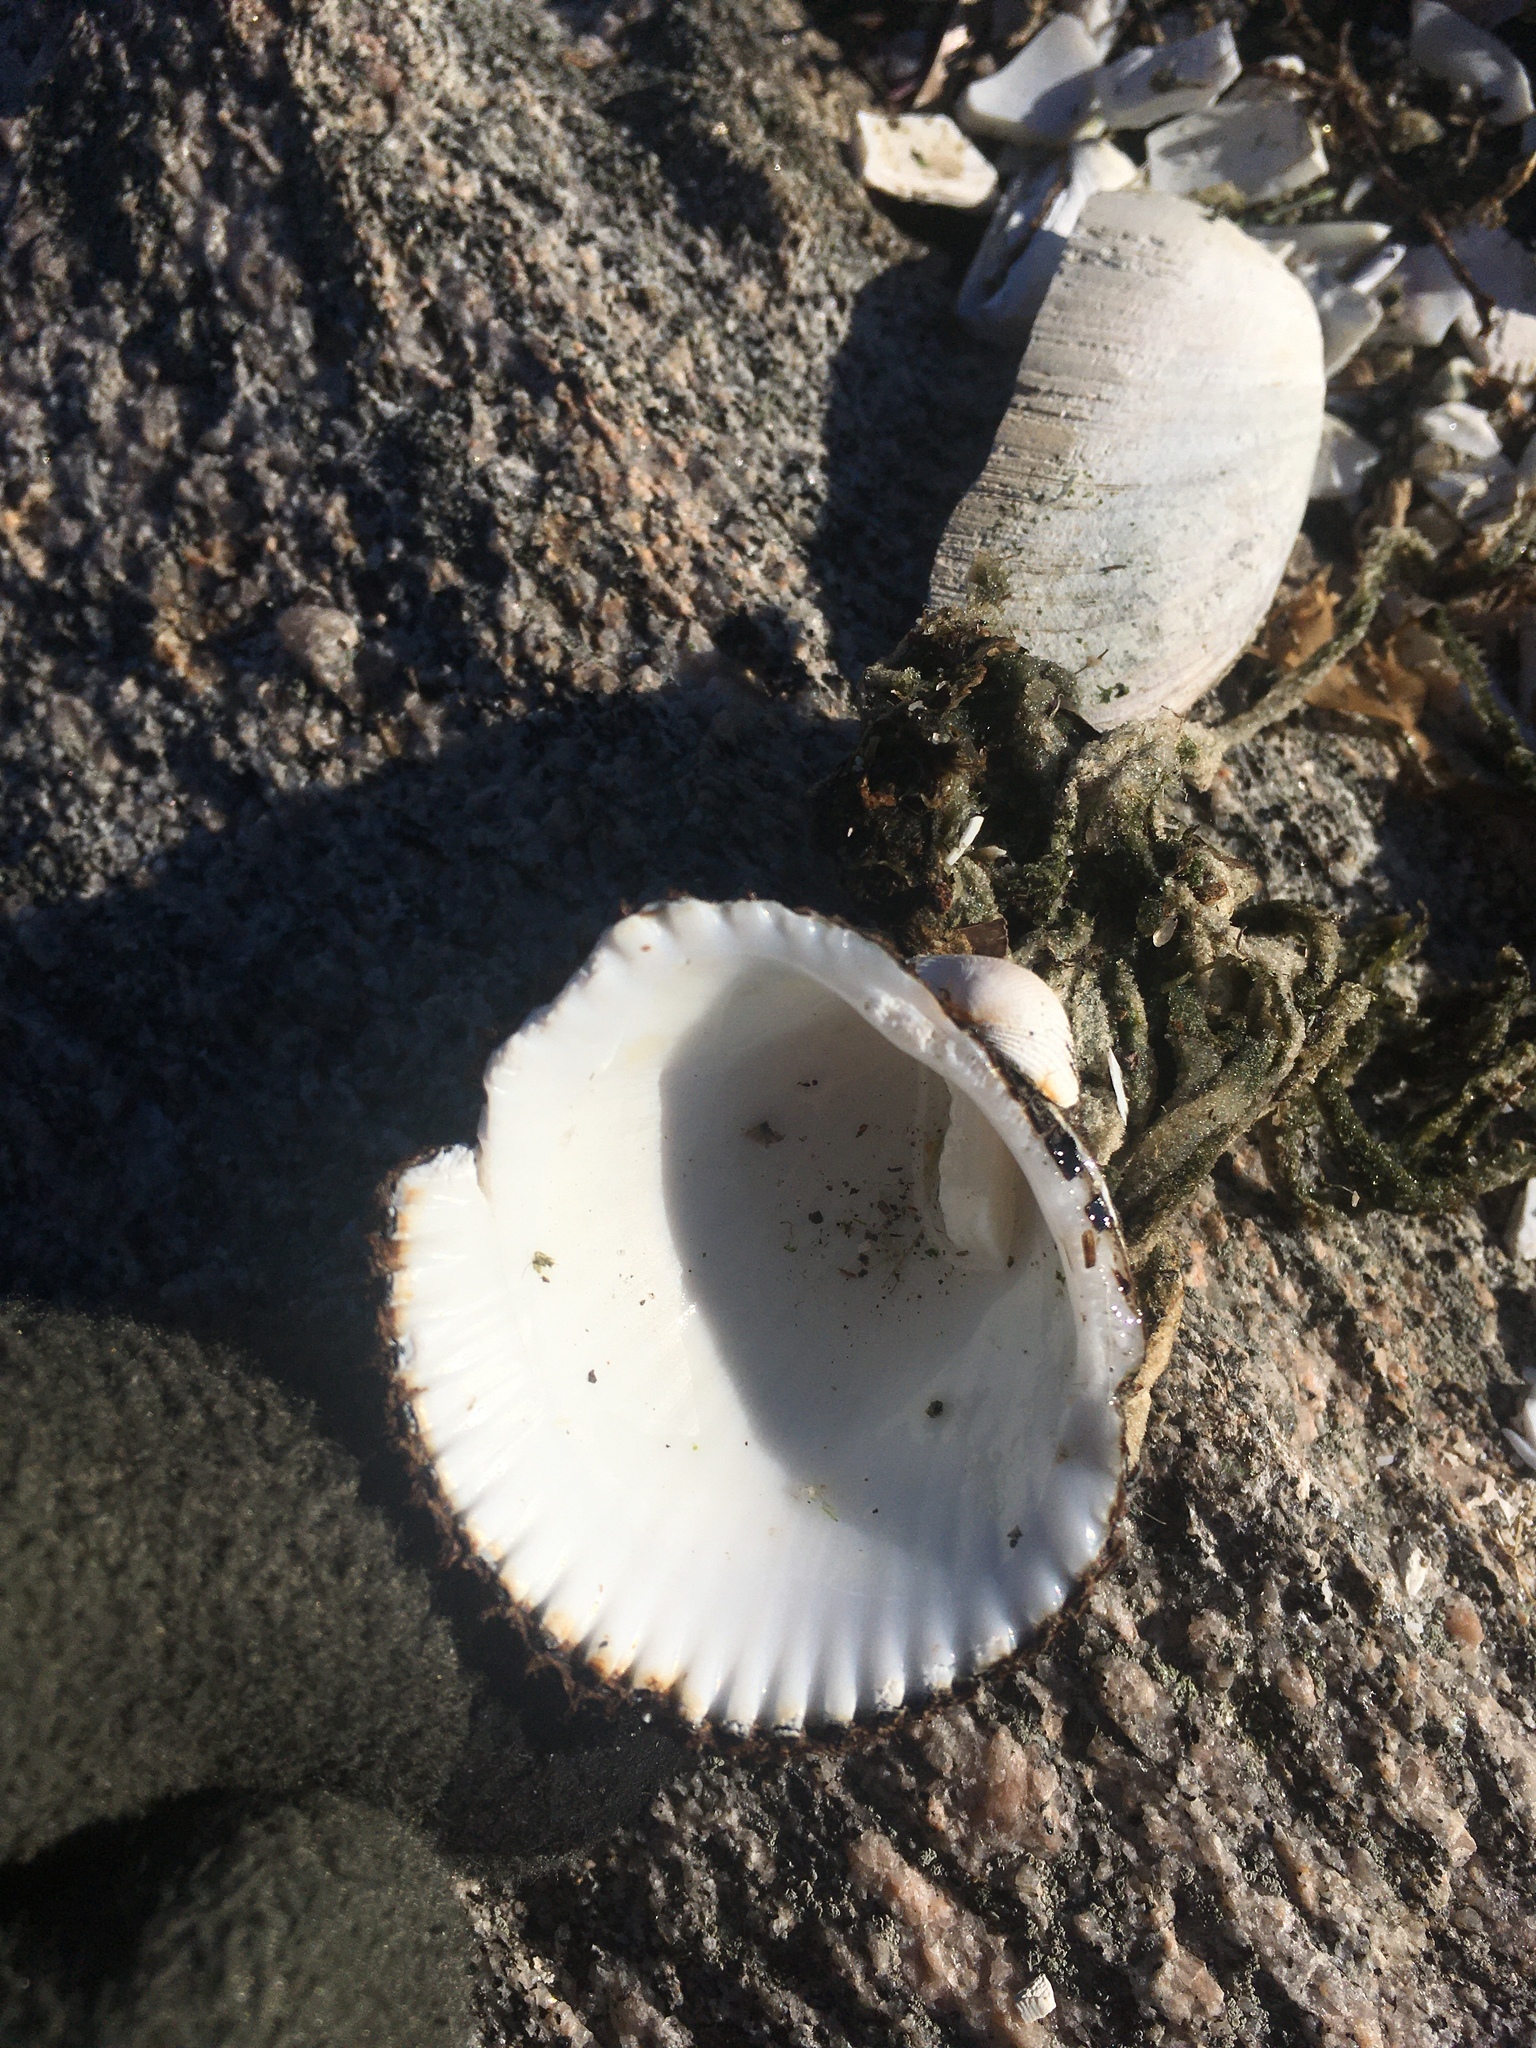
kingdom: Animalia
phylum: Mollusca
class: Bivalvia
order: Arcida
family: Arcidae
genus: Lunarca
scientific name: Lunarca ovalis
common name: Blood ark
